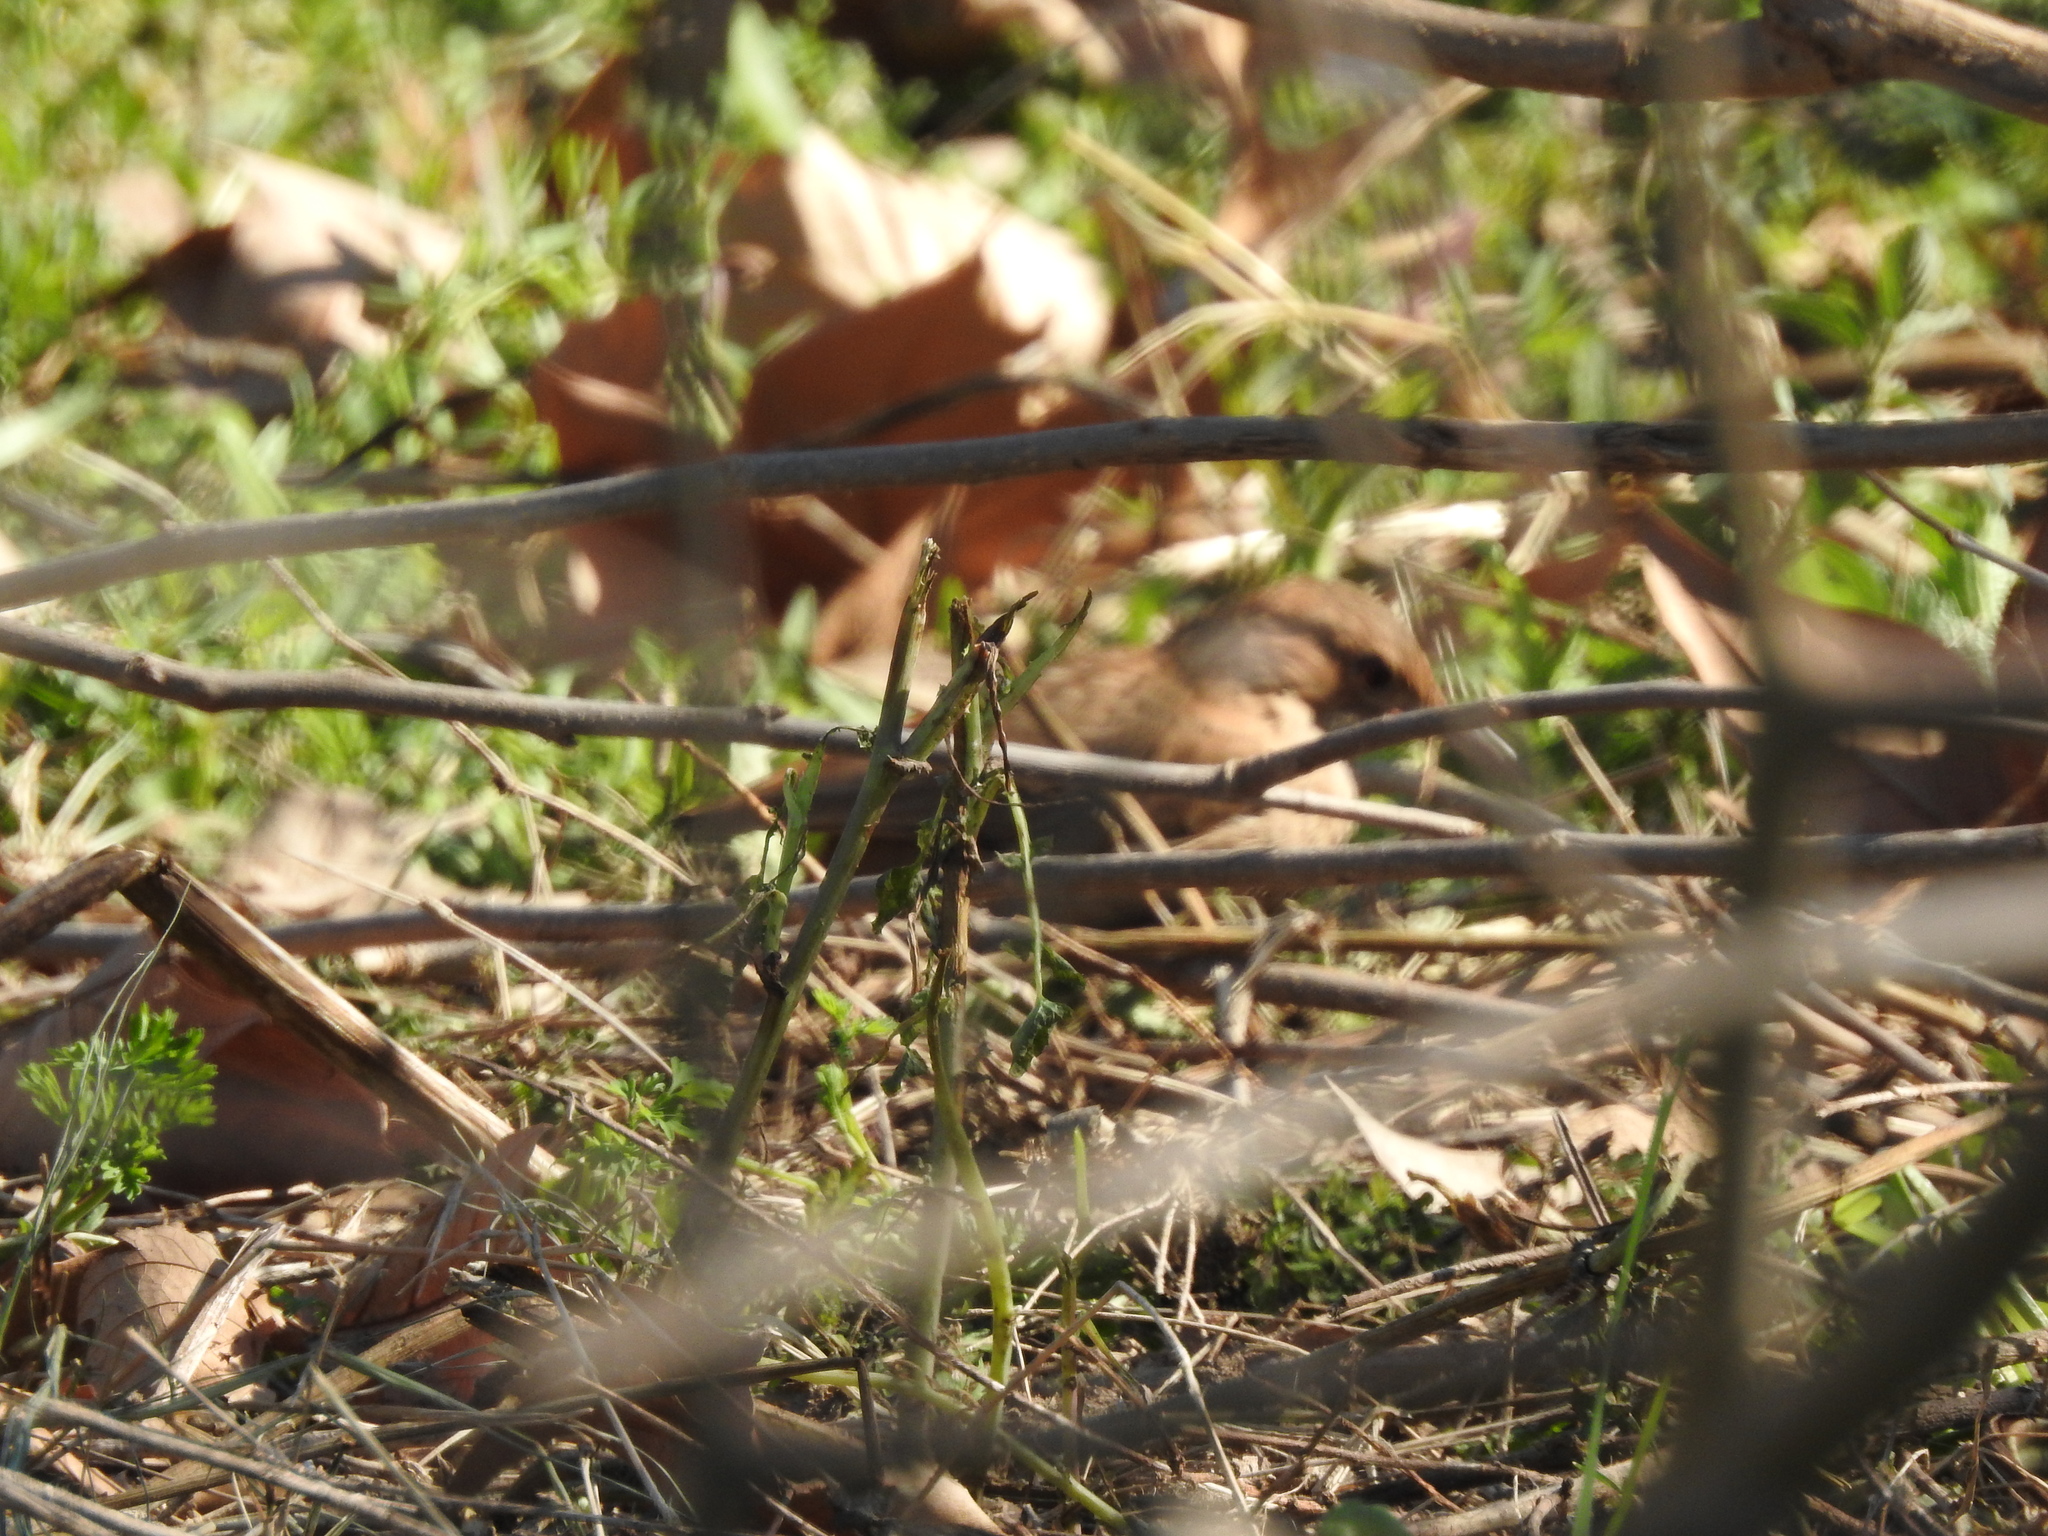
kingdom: Animalia
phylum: Chordata
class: Aves
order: Passeriformes
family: Furnariidae
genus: Furnarius
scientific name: Furnarius rufus
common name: Rufous hornero
